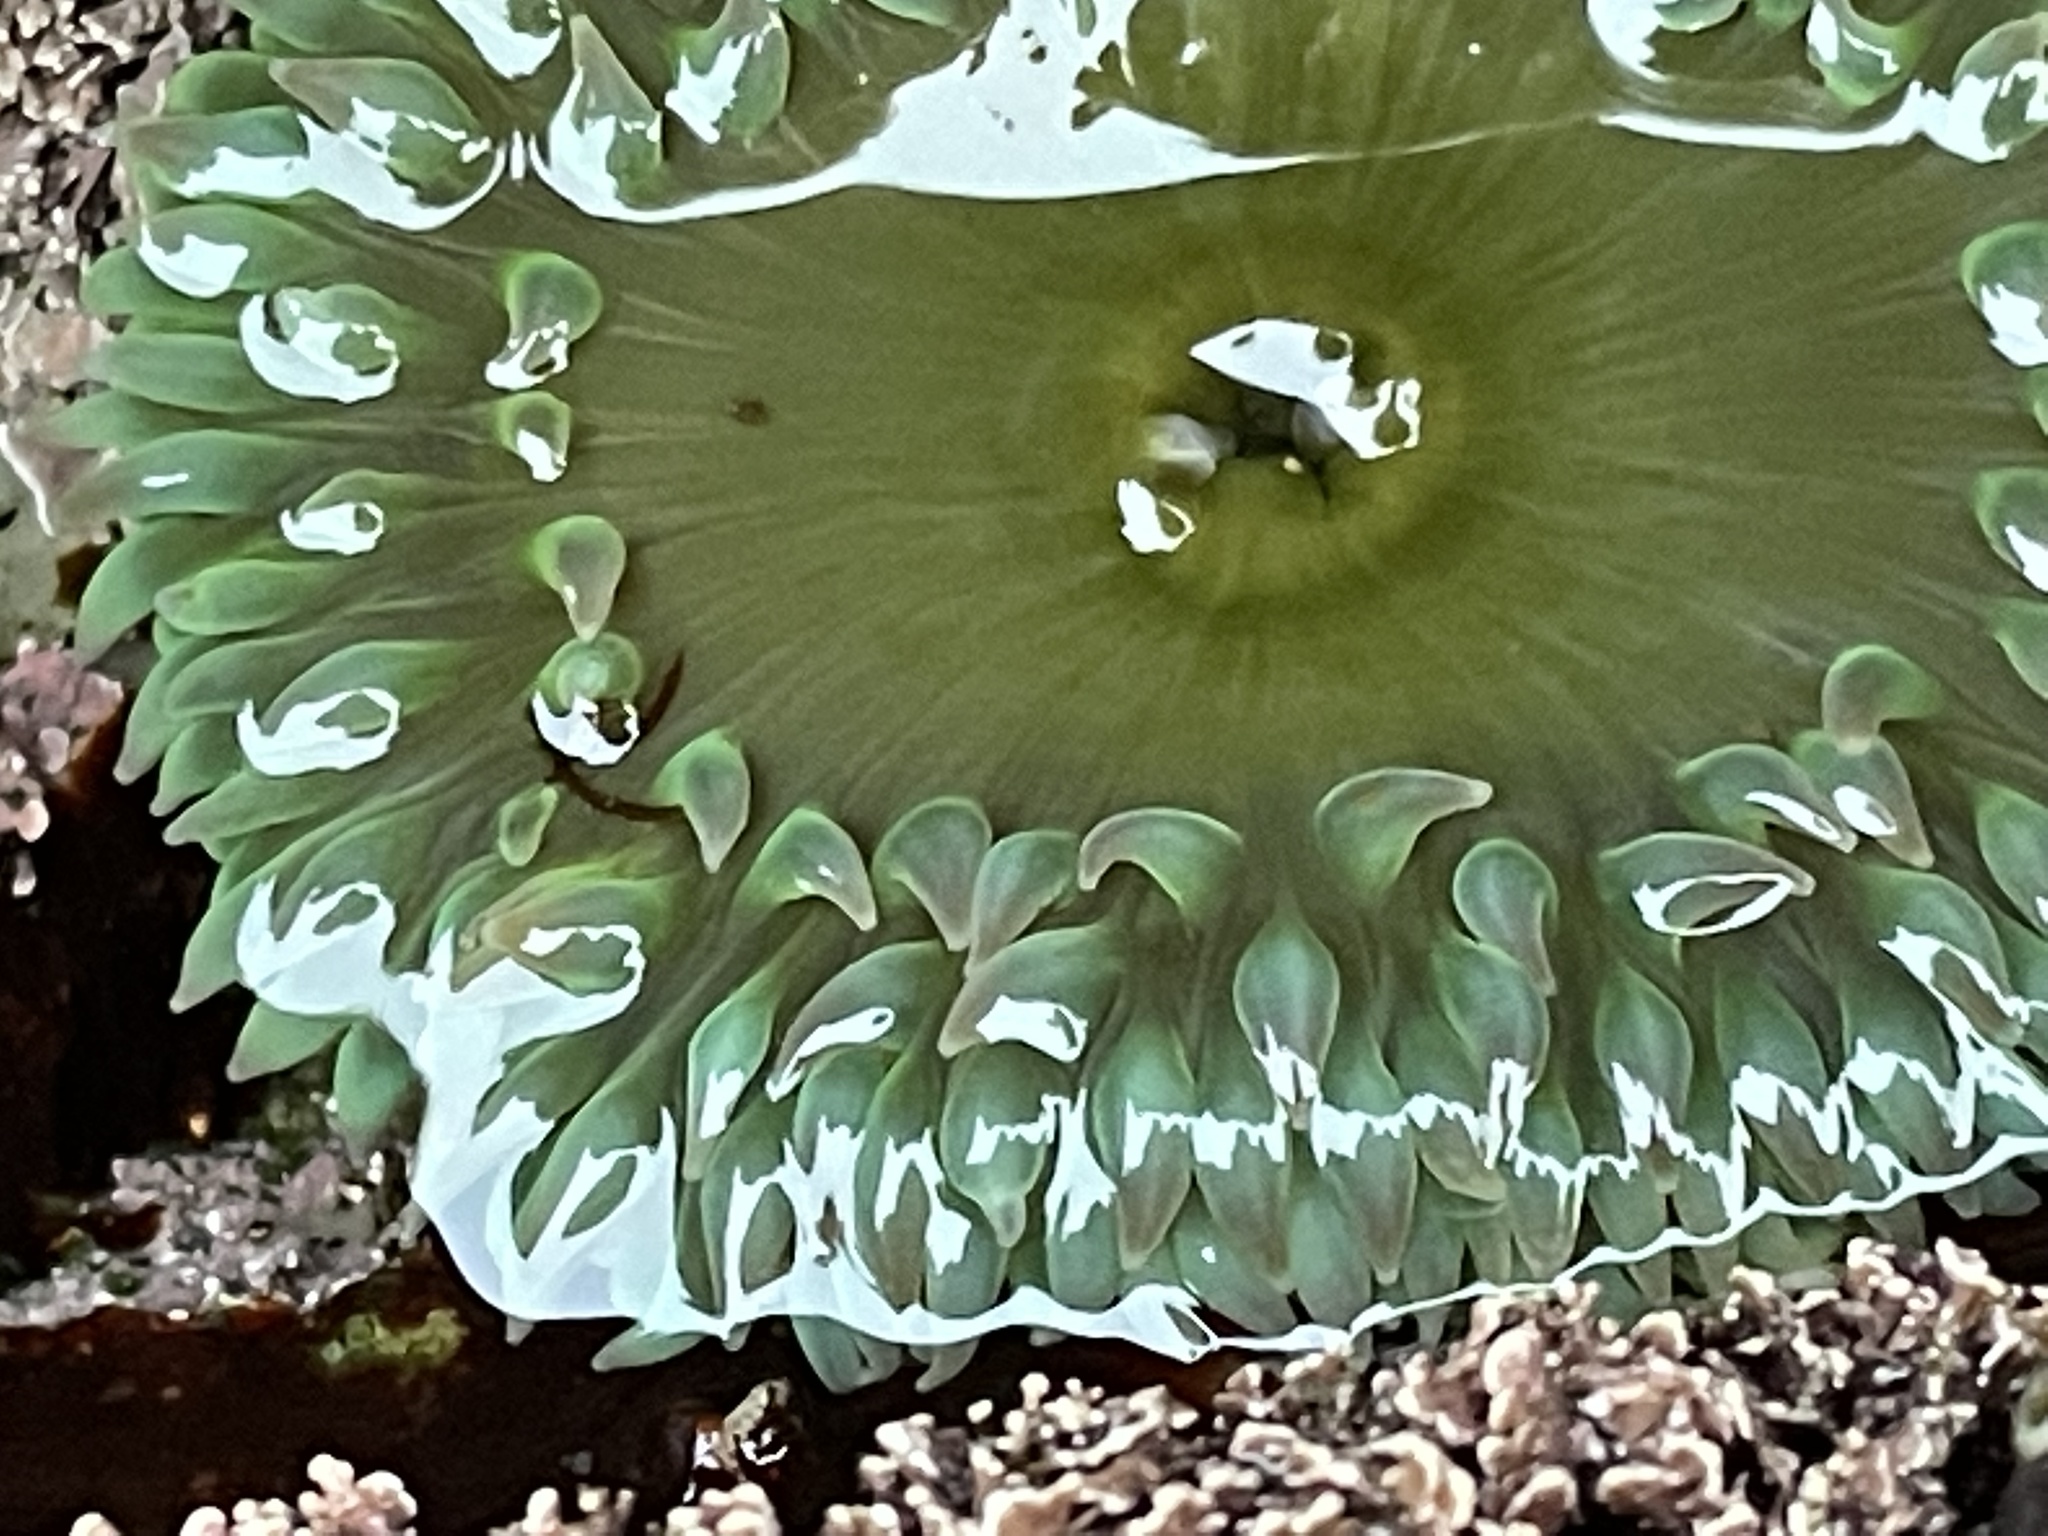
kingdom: Animalia
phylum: Cnidaria
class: Anthozoa
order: Actiniaria
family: Actiniidae
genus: Anthopleura
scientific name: Anthopleura xanthogrammica
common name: Giant green anemone
